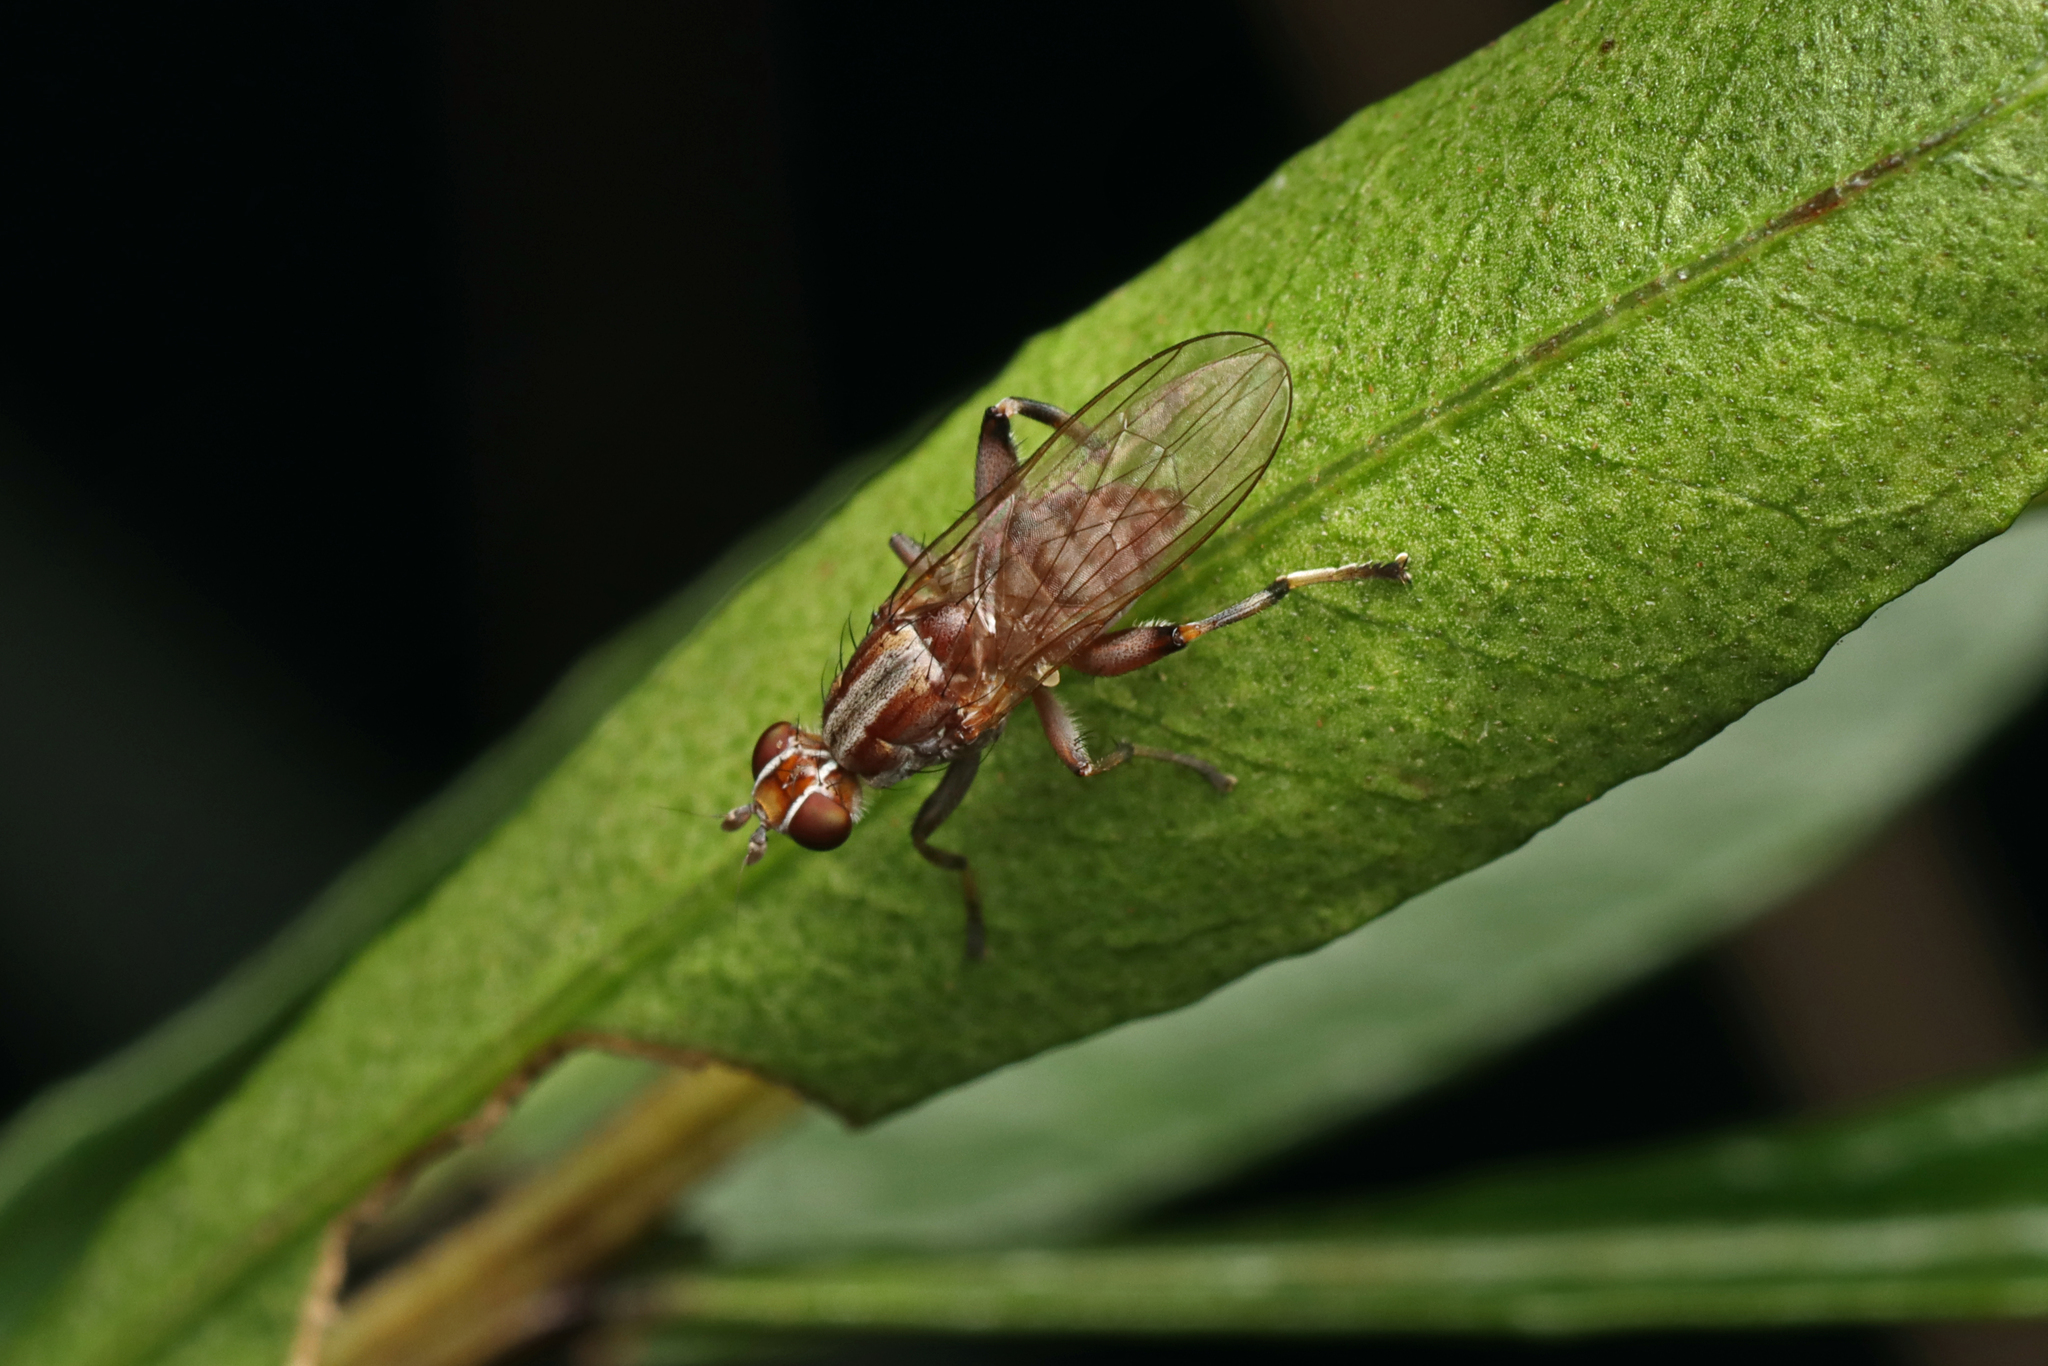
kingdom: Animalia
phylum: Arthropoda
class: Insecta
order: Diptera
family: Heleomyzidae
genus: Tapeigaster
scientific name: Tapeigaster nigricornis
